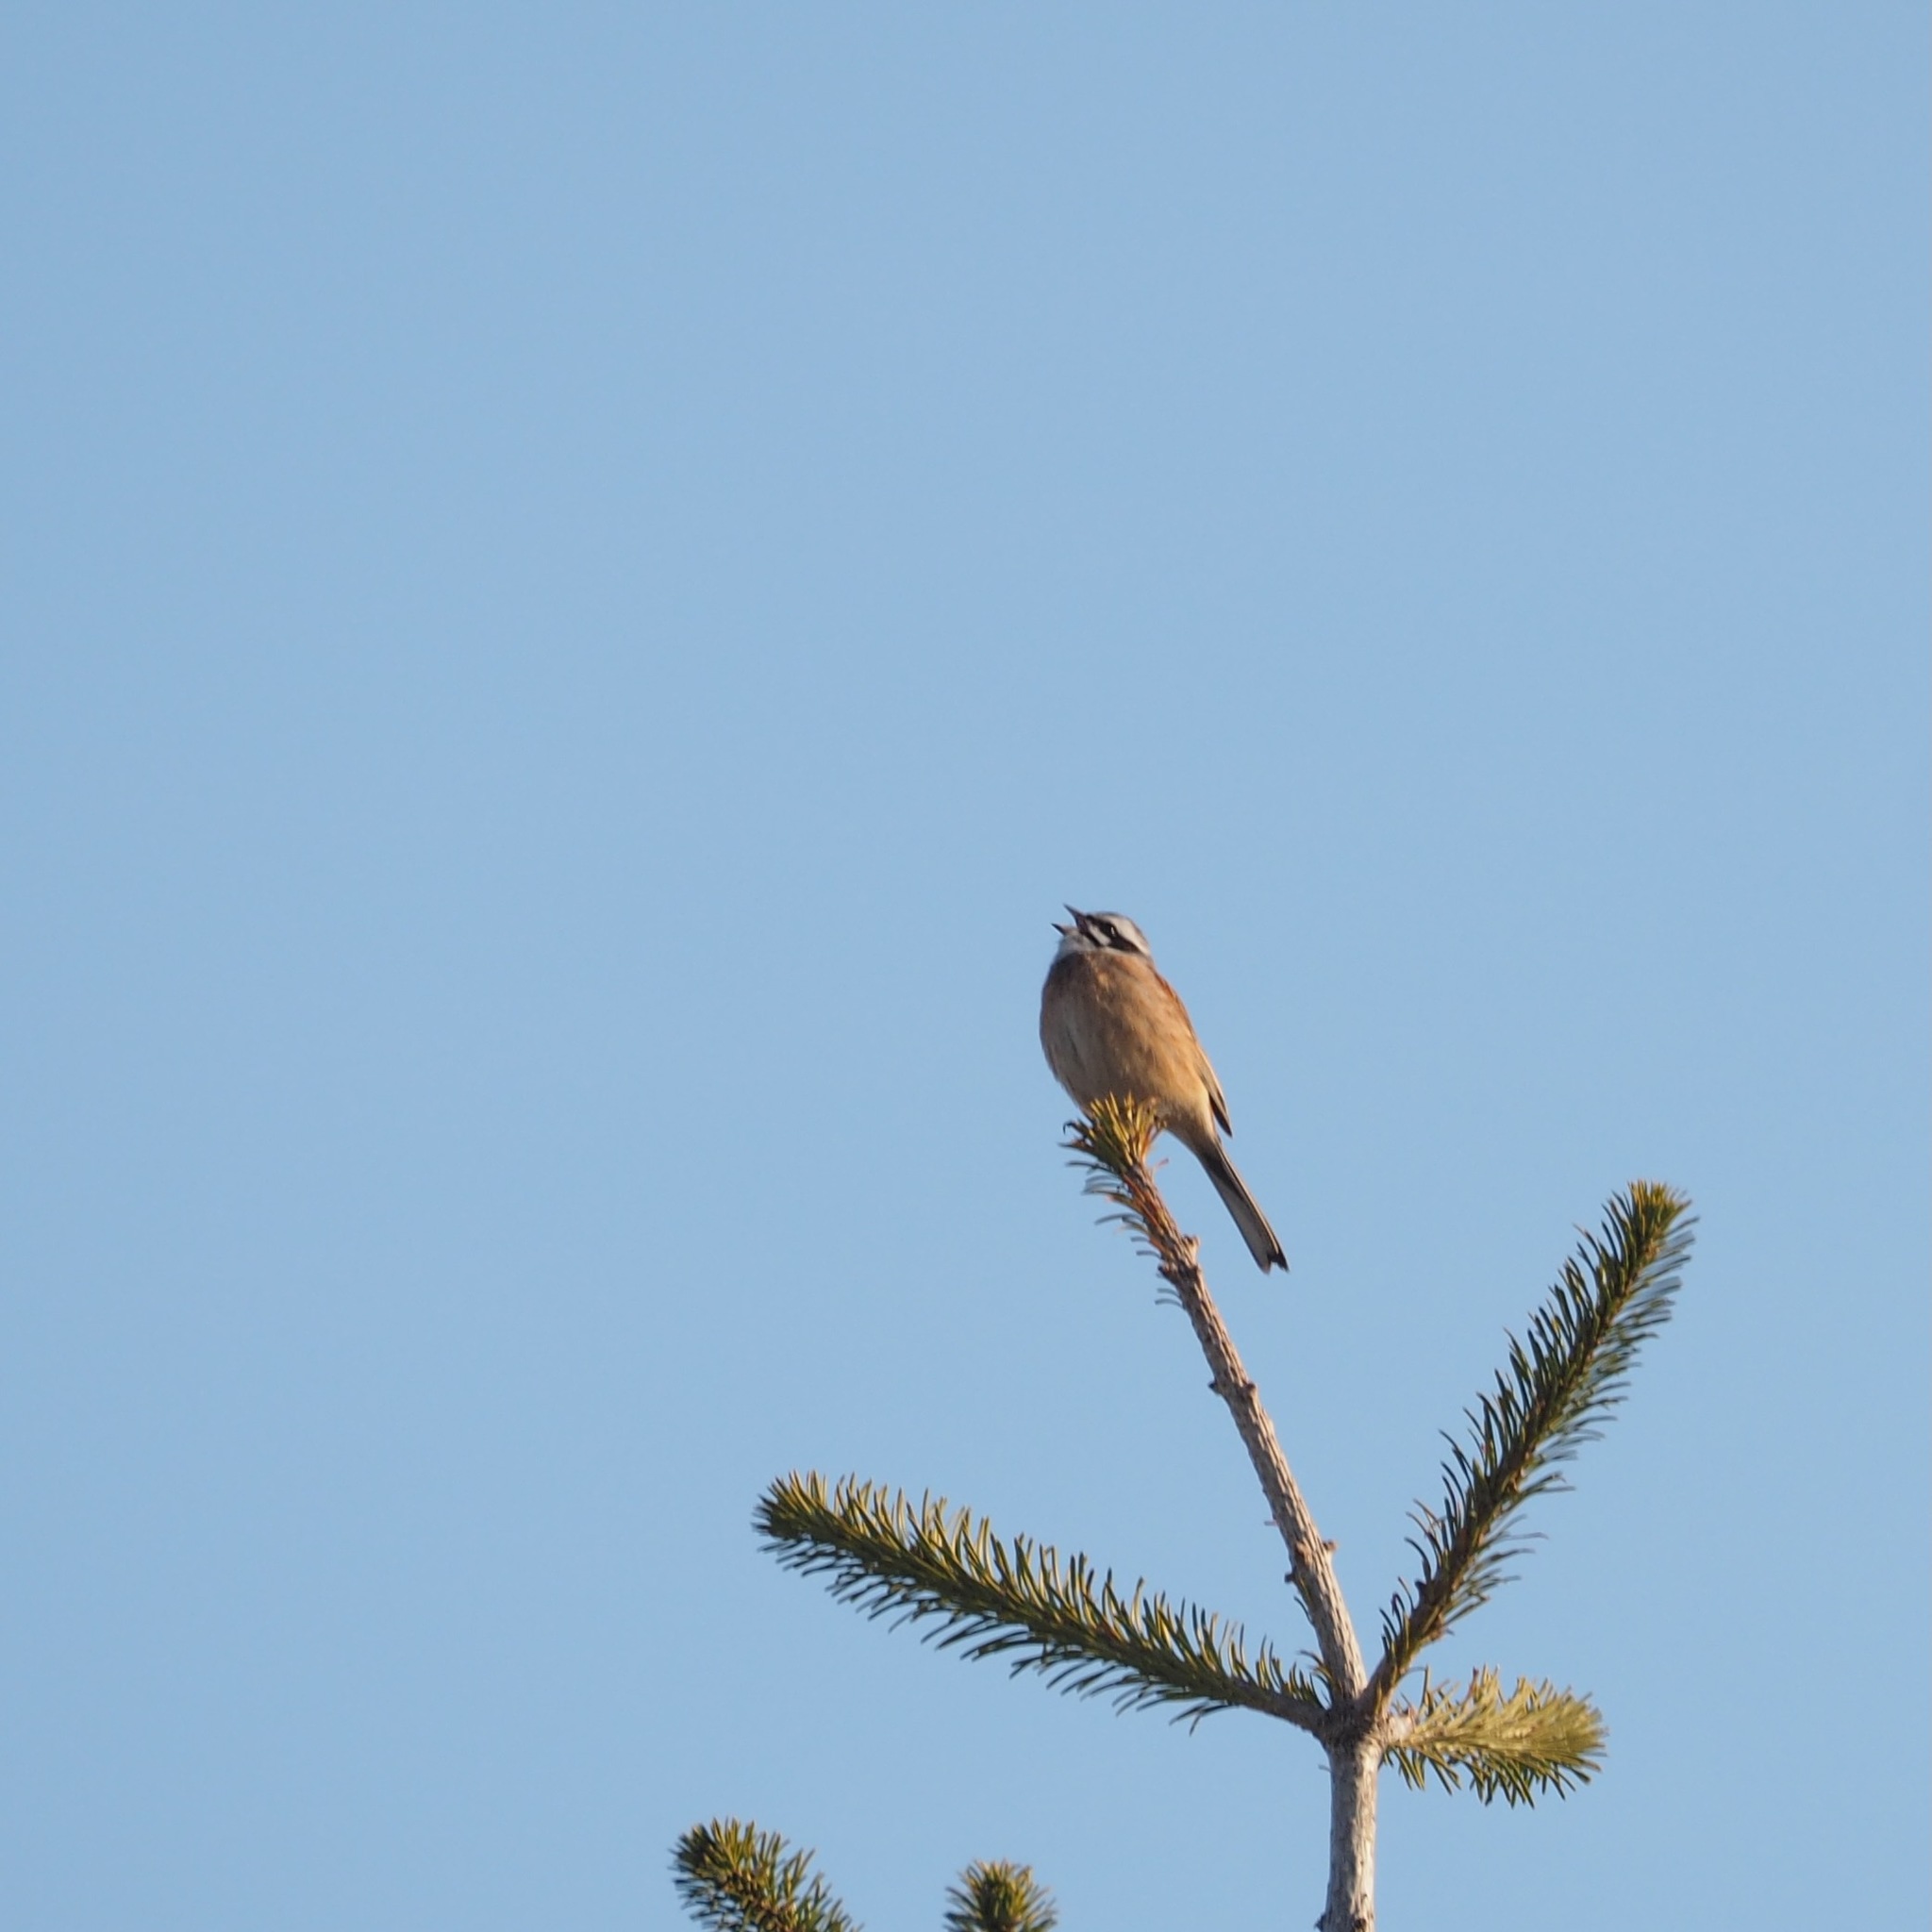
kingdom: Animalia
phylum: Chordata
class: Aves
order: Passeriformes
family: Emberizidae
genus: Emberiza
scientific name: Emberiza cioides
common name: Meadow bunting
